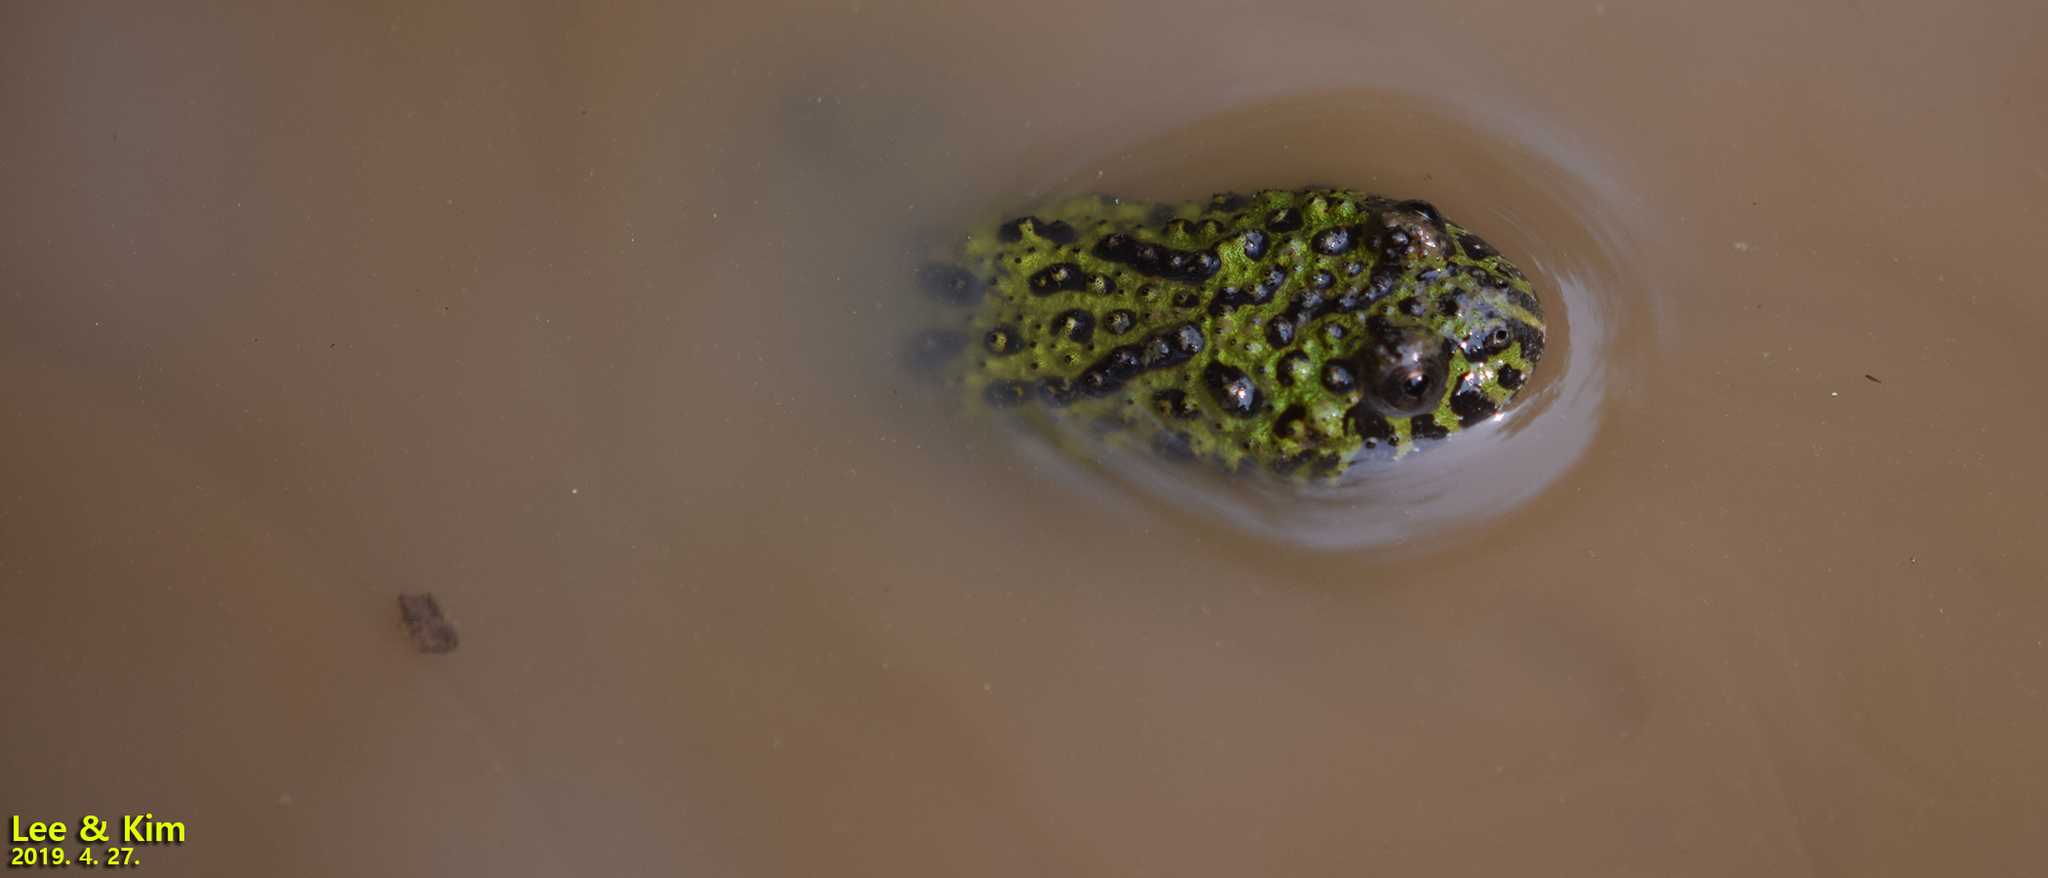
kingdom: Animalia
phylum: Chordata
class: Amphibia
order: Anura
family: Bombinatoridae
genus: Bombina
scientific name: Bombina orientalis
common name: Oriental firebelly toad
